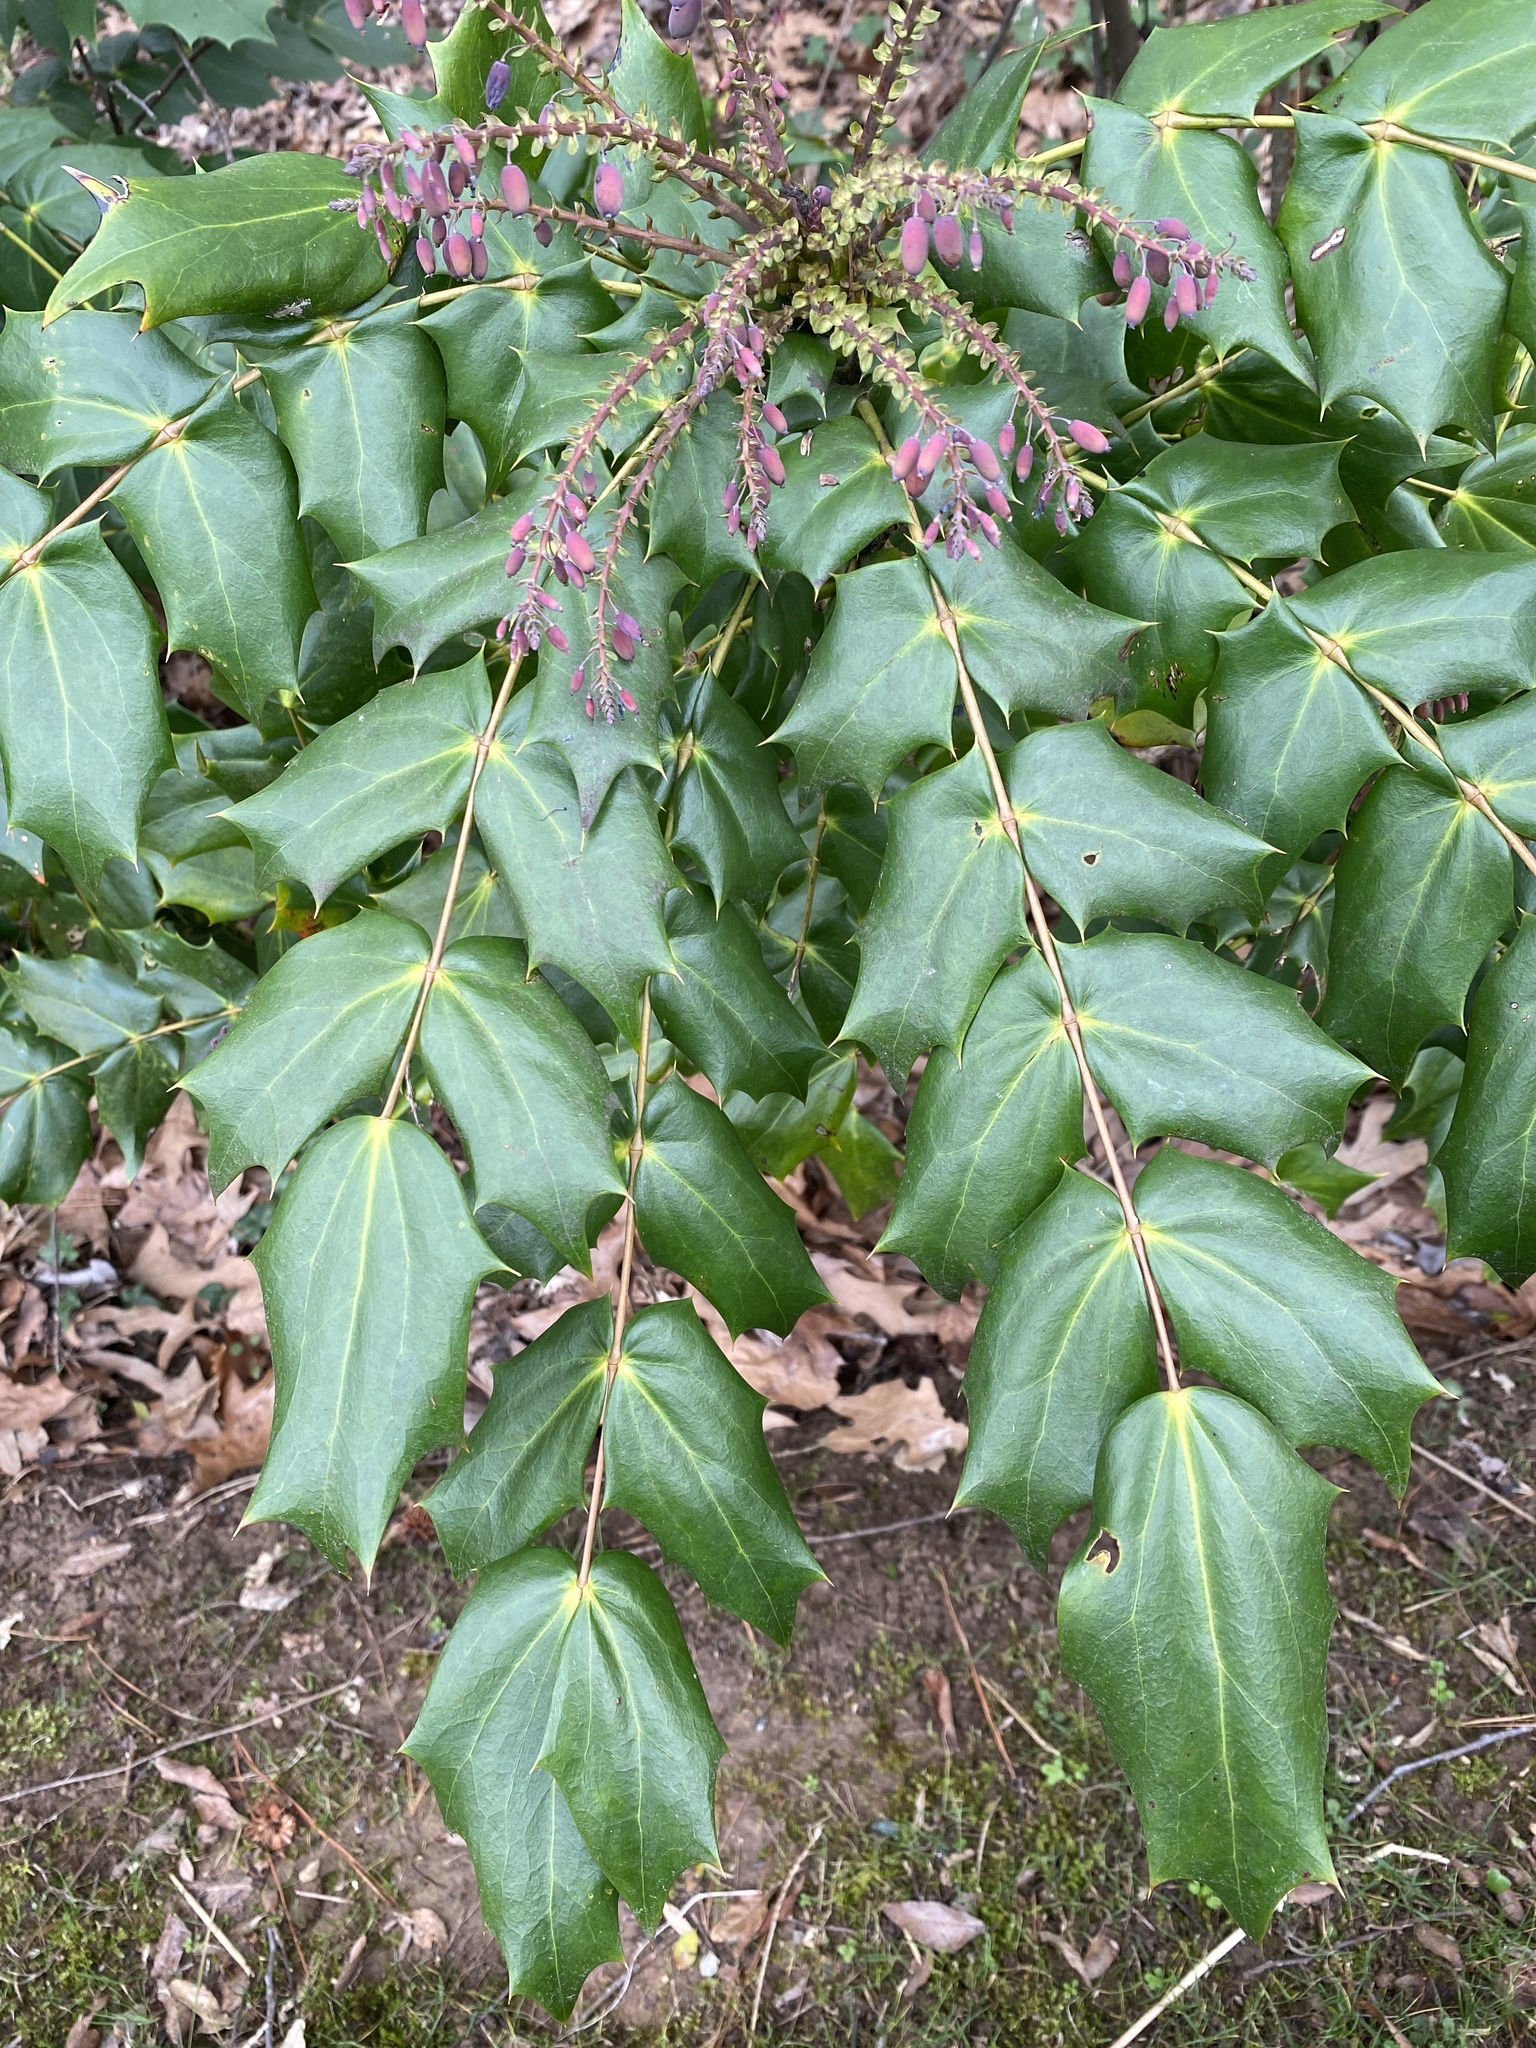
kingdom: Plantae
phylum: Tracheophyta
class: Magnoliopsida
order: Ranunculales
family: Berberidaceae
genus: Mahonia
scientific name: Mahonia bealei
